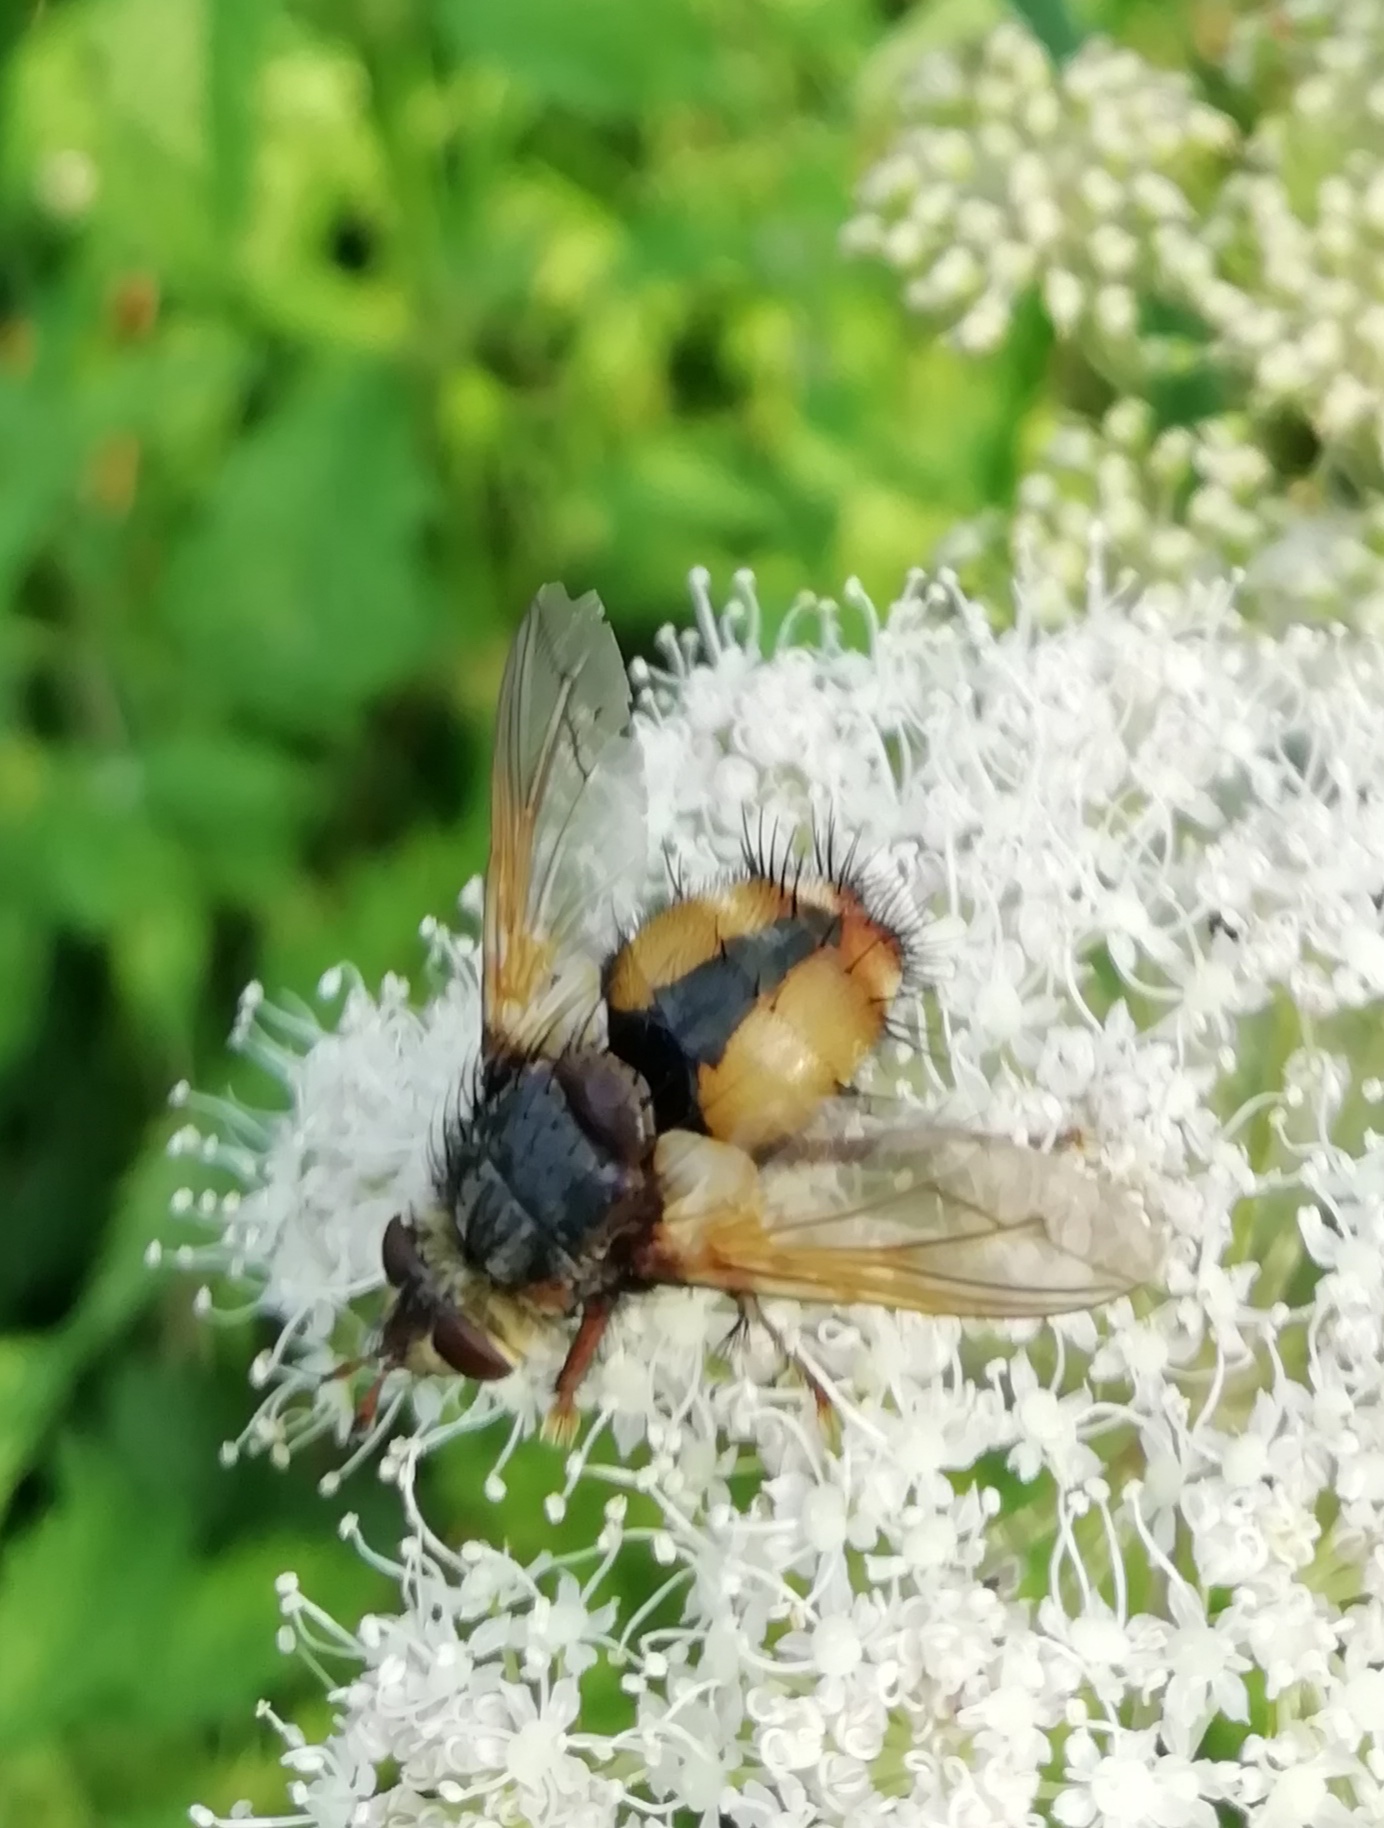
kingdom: Animalia
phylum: Arthropoda
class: Insecta
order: Diptera
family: Tachinidae
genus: Tachina
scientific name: Tachina fera
